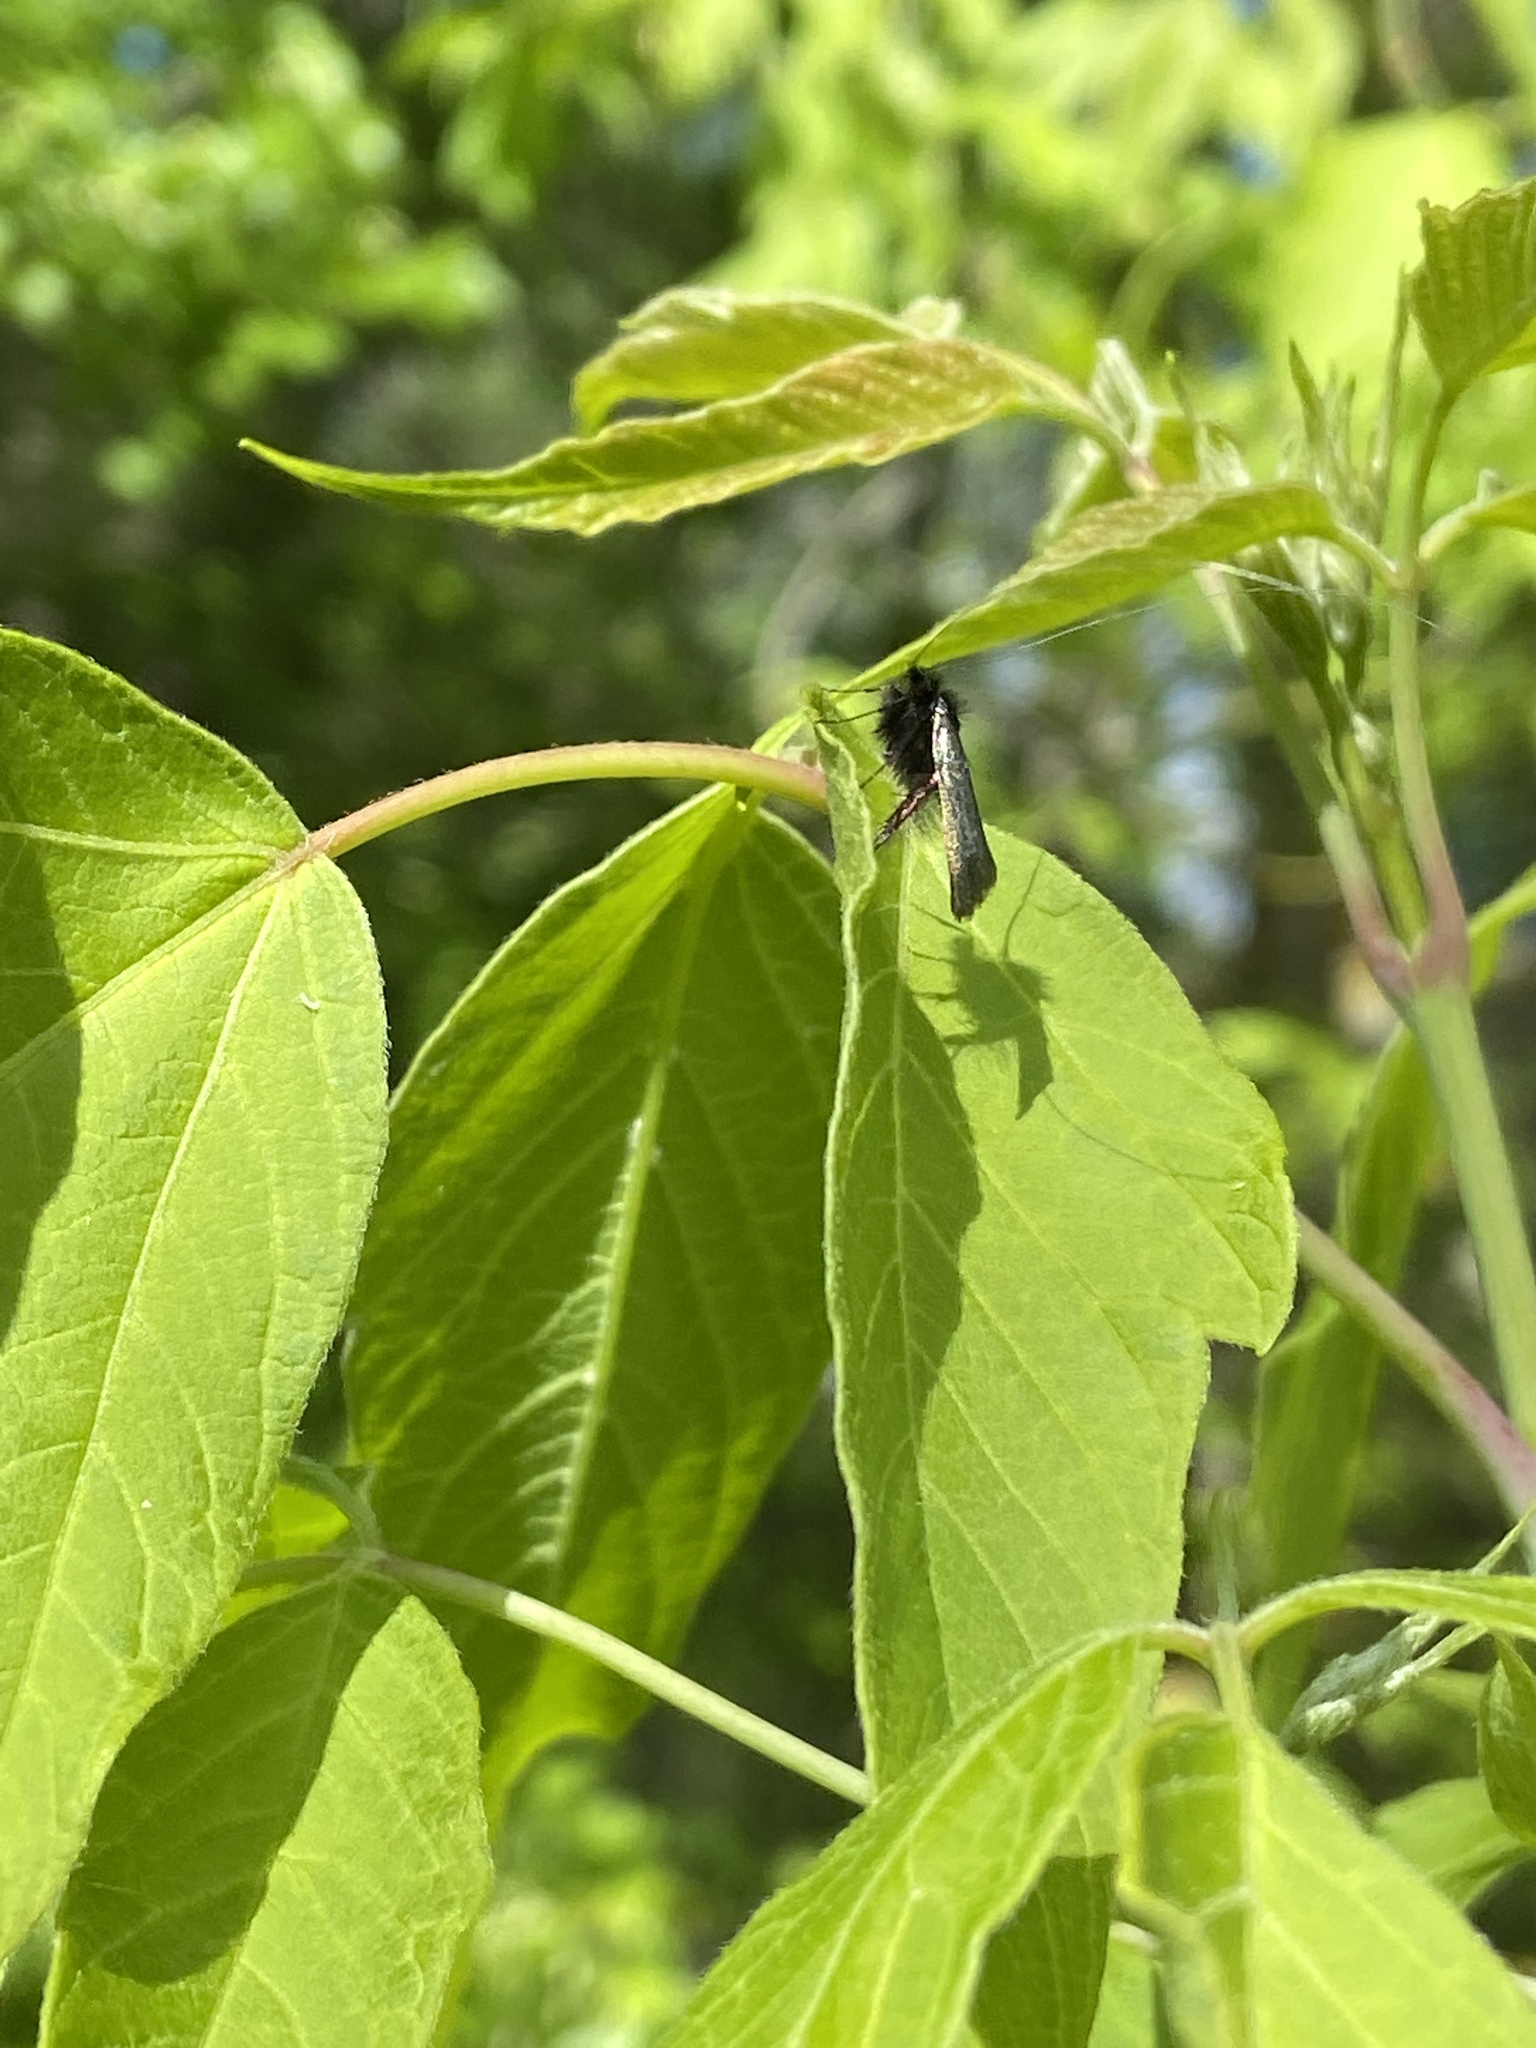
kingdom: Animalia
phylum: Arthropoda
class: Insecta
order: Lepidoptera
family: Adelidae
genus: Adela
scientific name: Adela viridella
